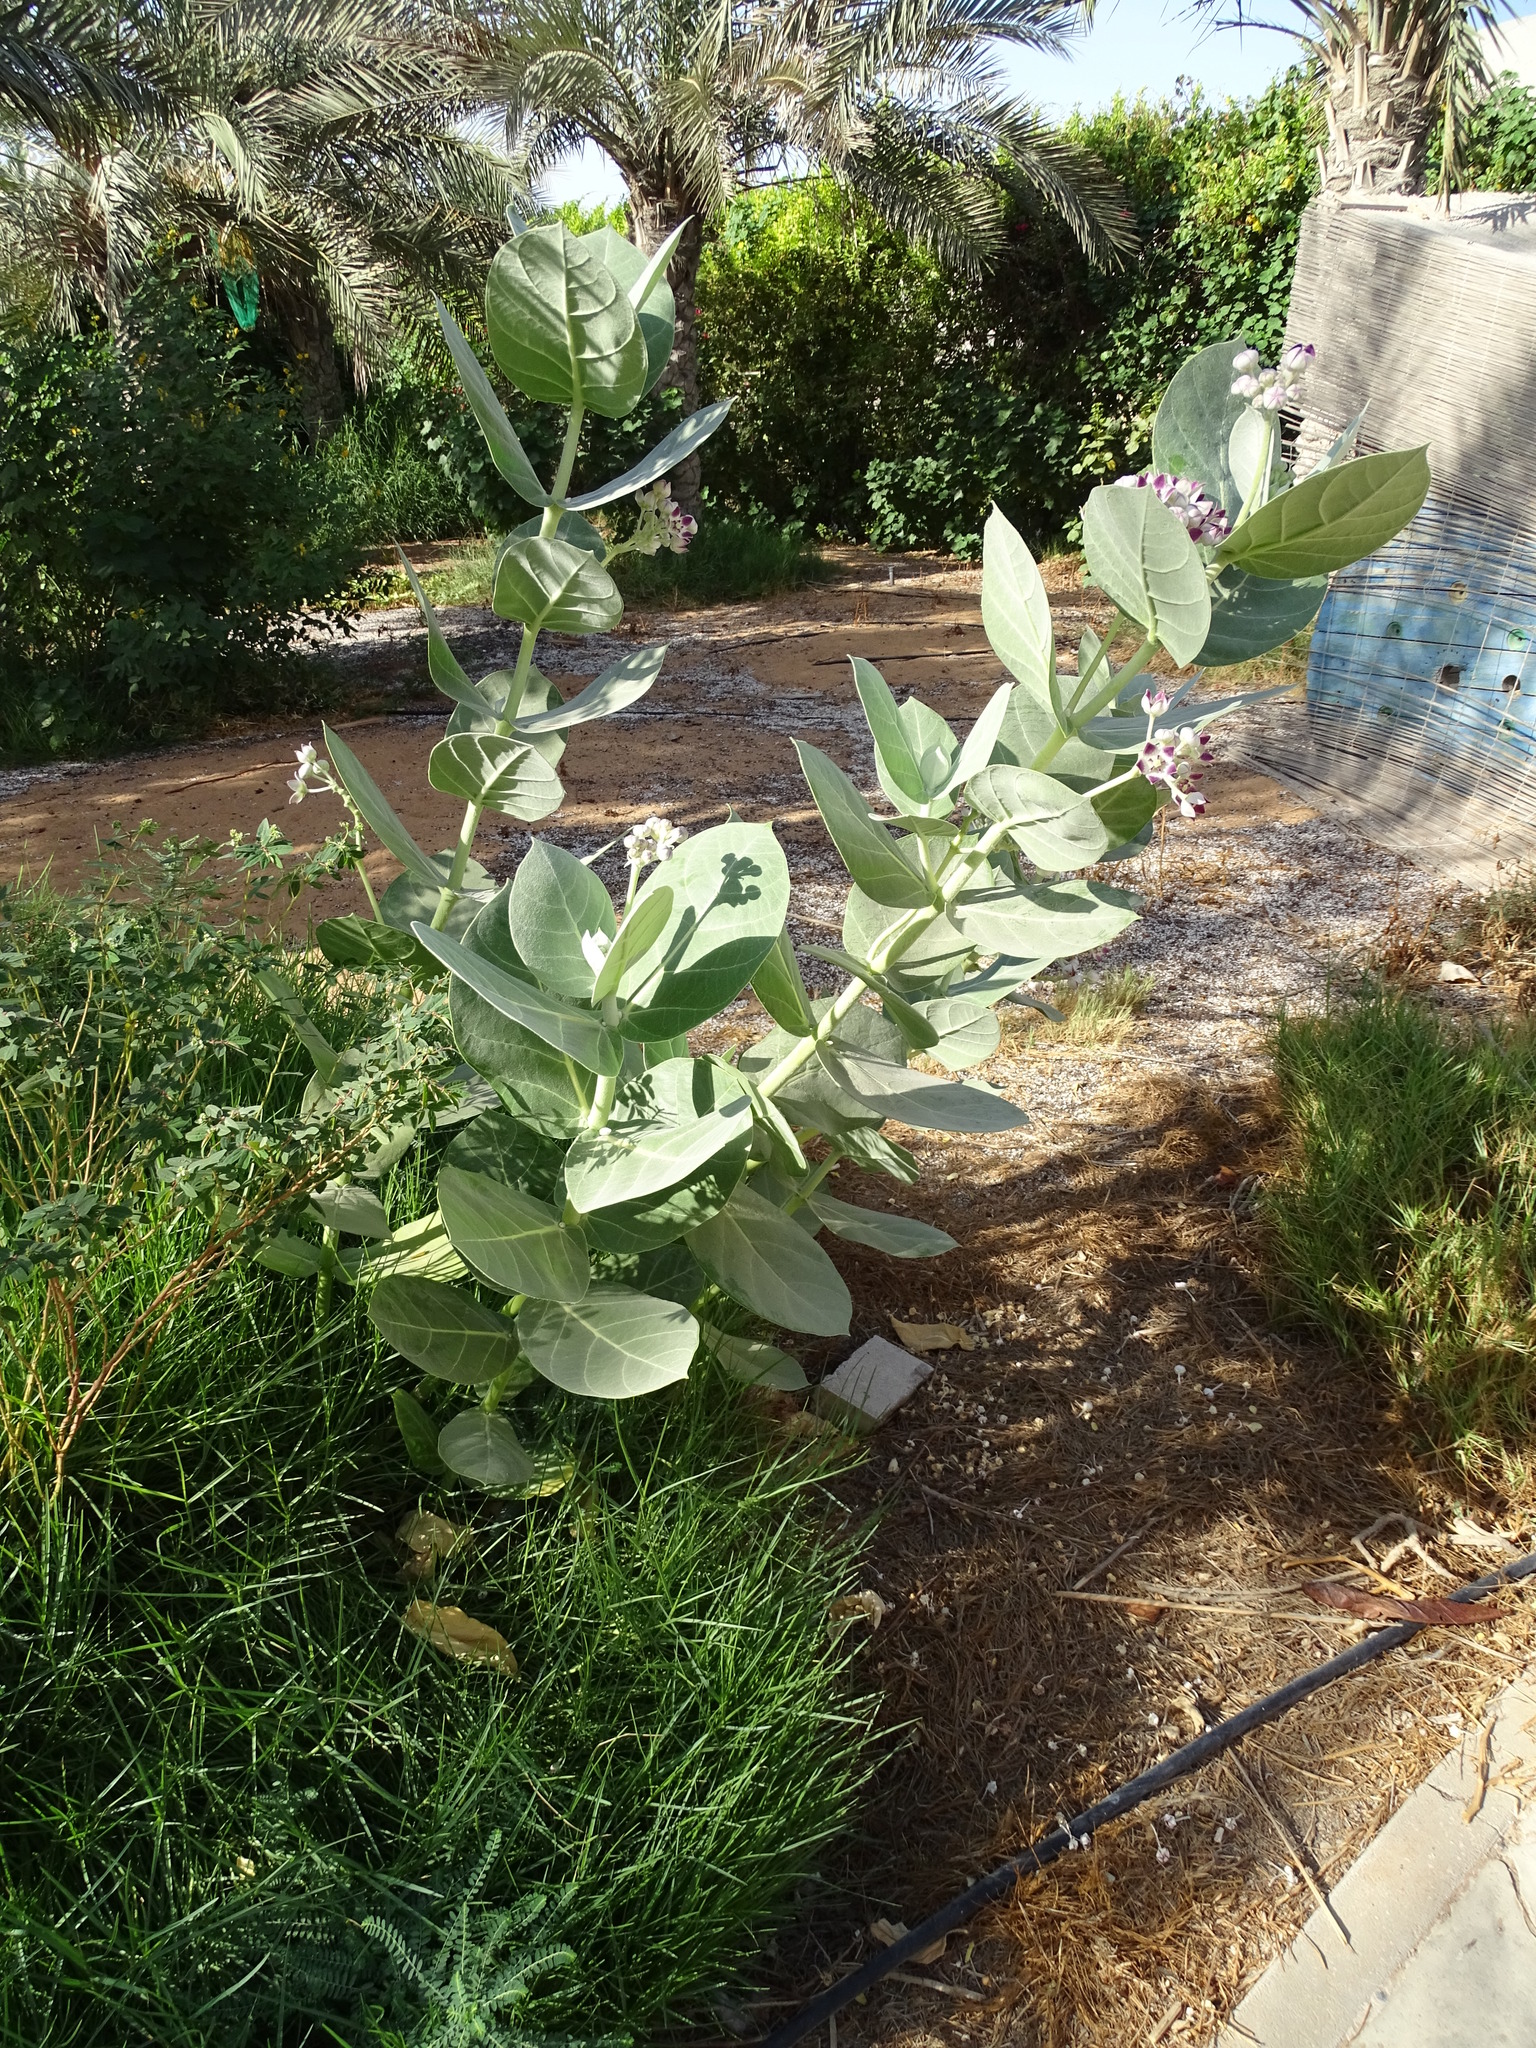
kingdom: Plantae
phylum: Tracheophyta
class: Magnoliopsida
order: Gentianales
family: Apocynaceae
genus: Calotropis
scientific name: Calotropis procera
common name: Roostertree
